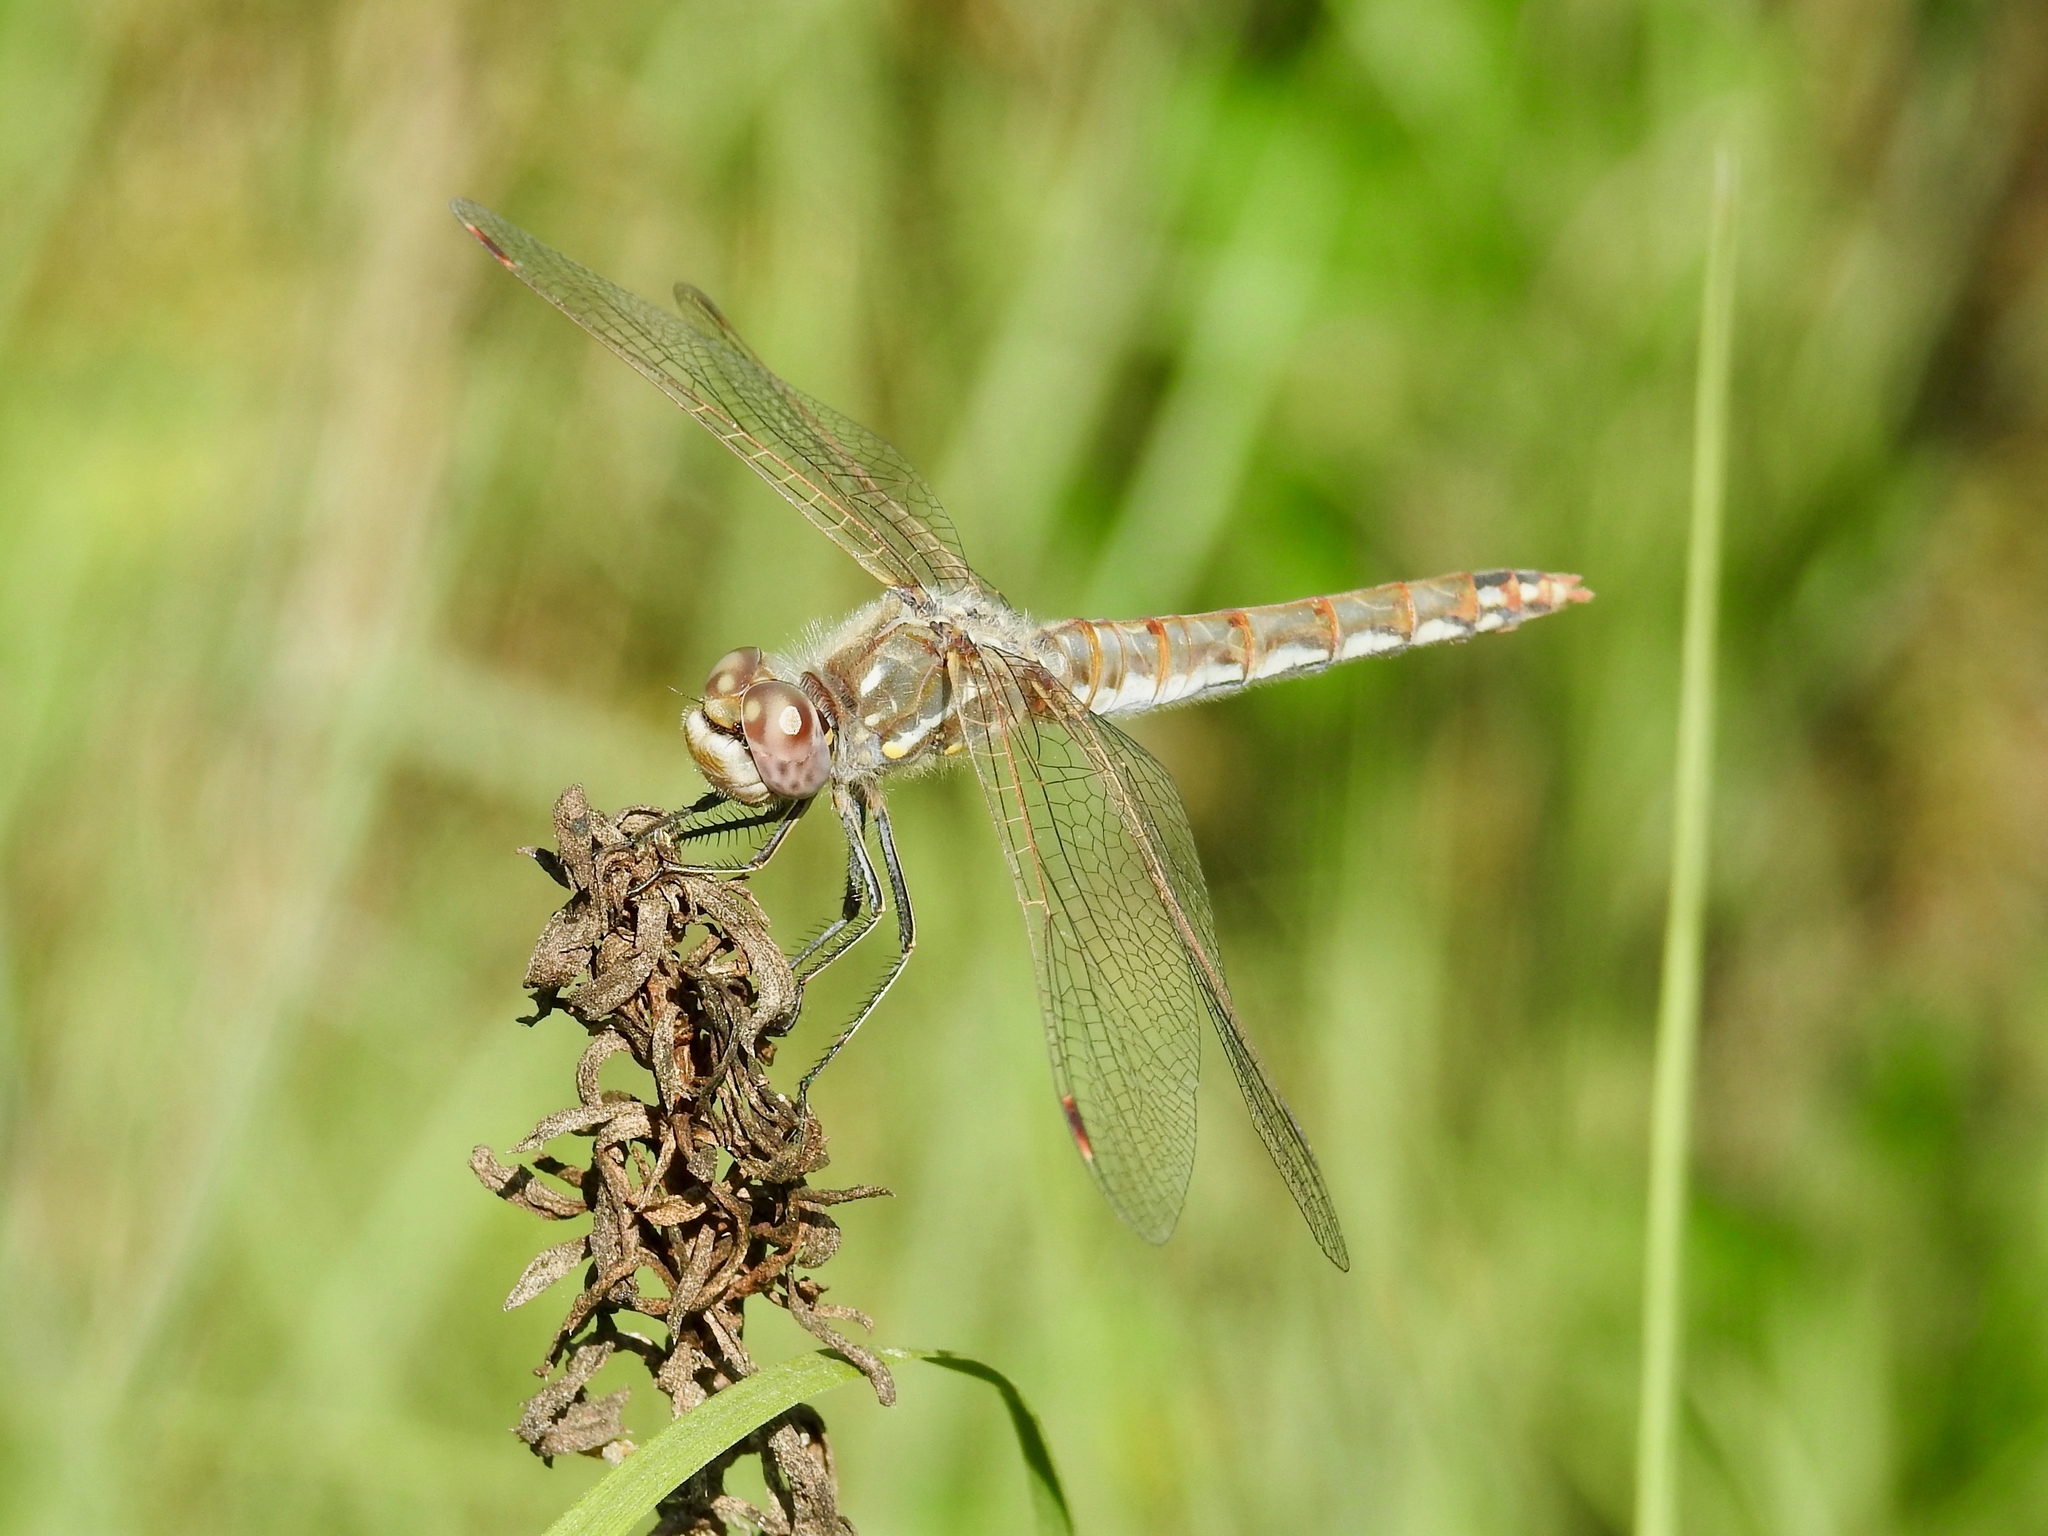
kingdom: Animalia
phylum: Arthropoda
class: Insecta
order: Odonata
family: Libellulidae
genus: Sympetrum
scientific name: Sympetrum corruptum
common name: Variegated meadowhawk
